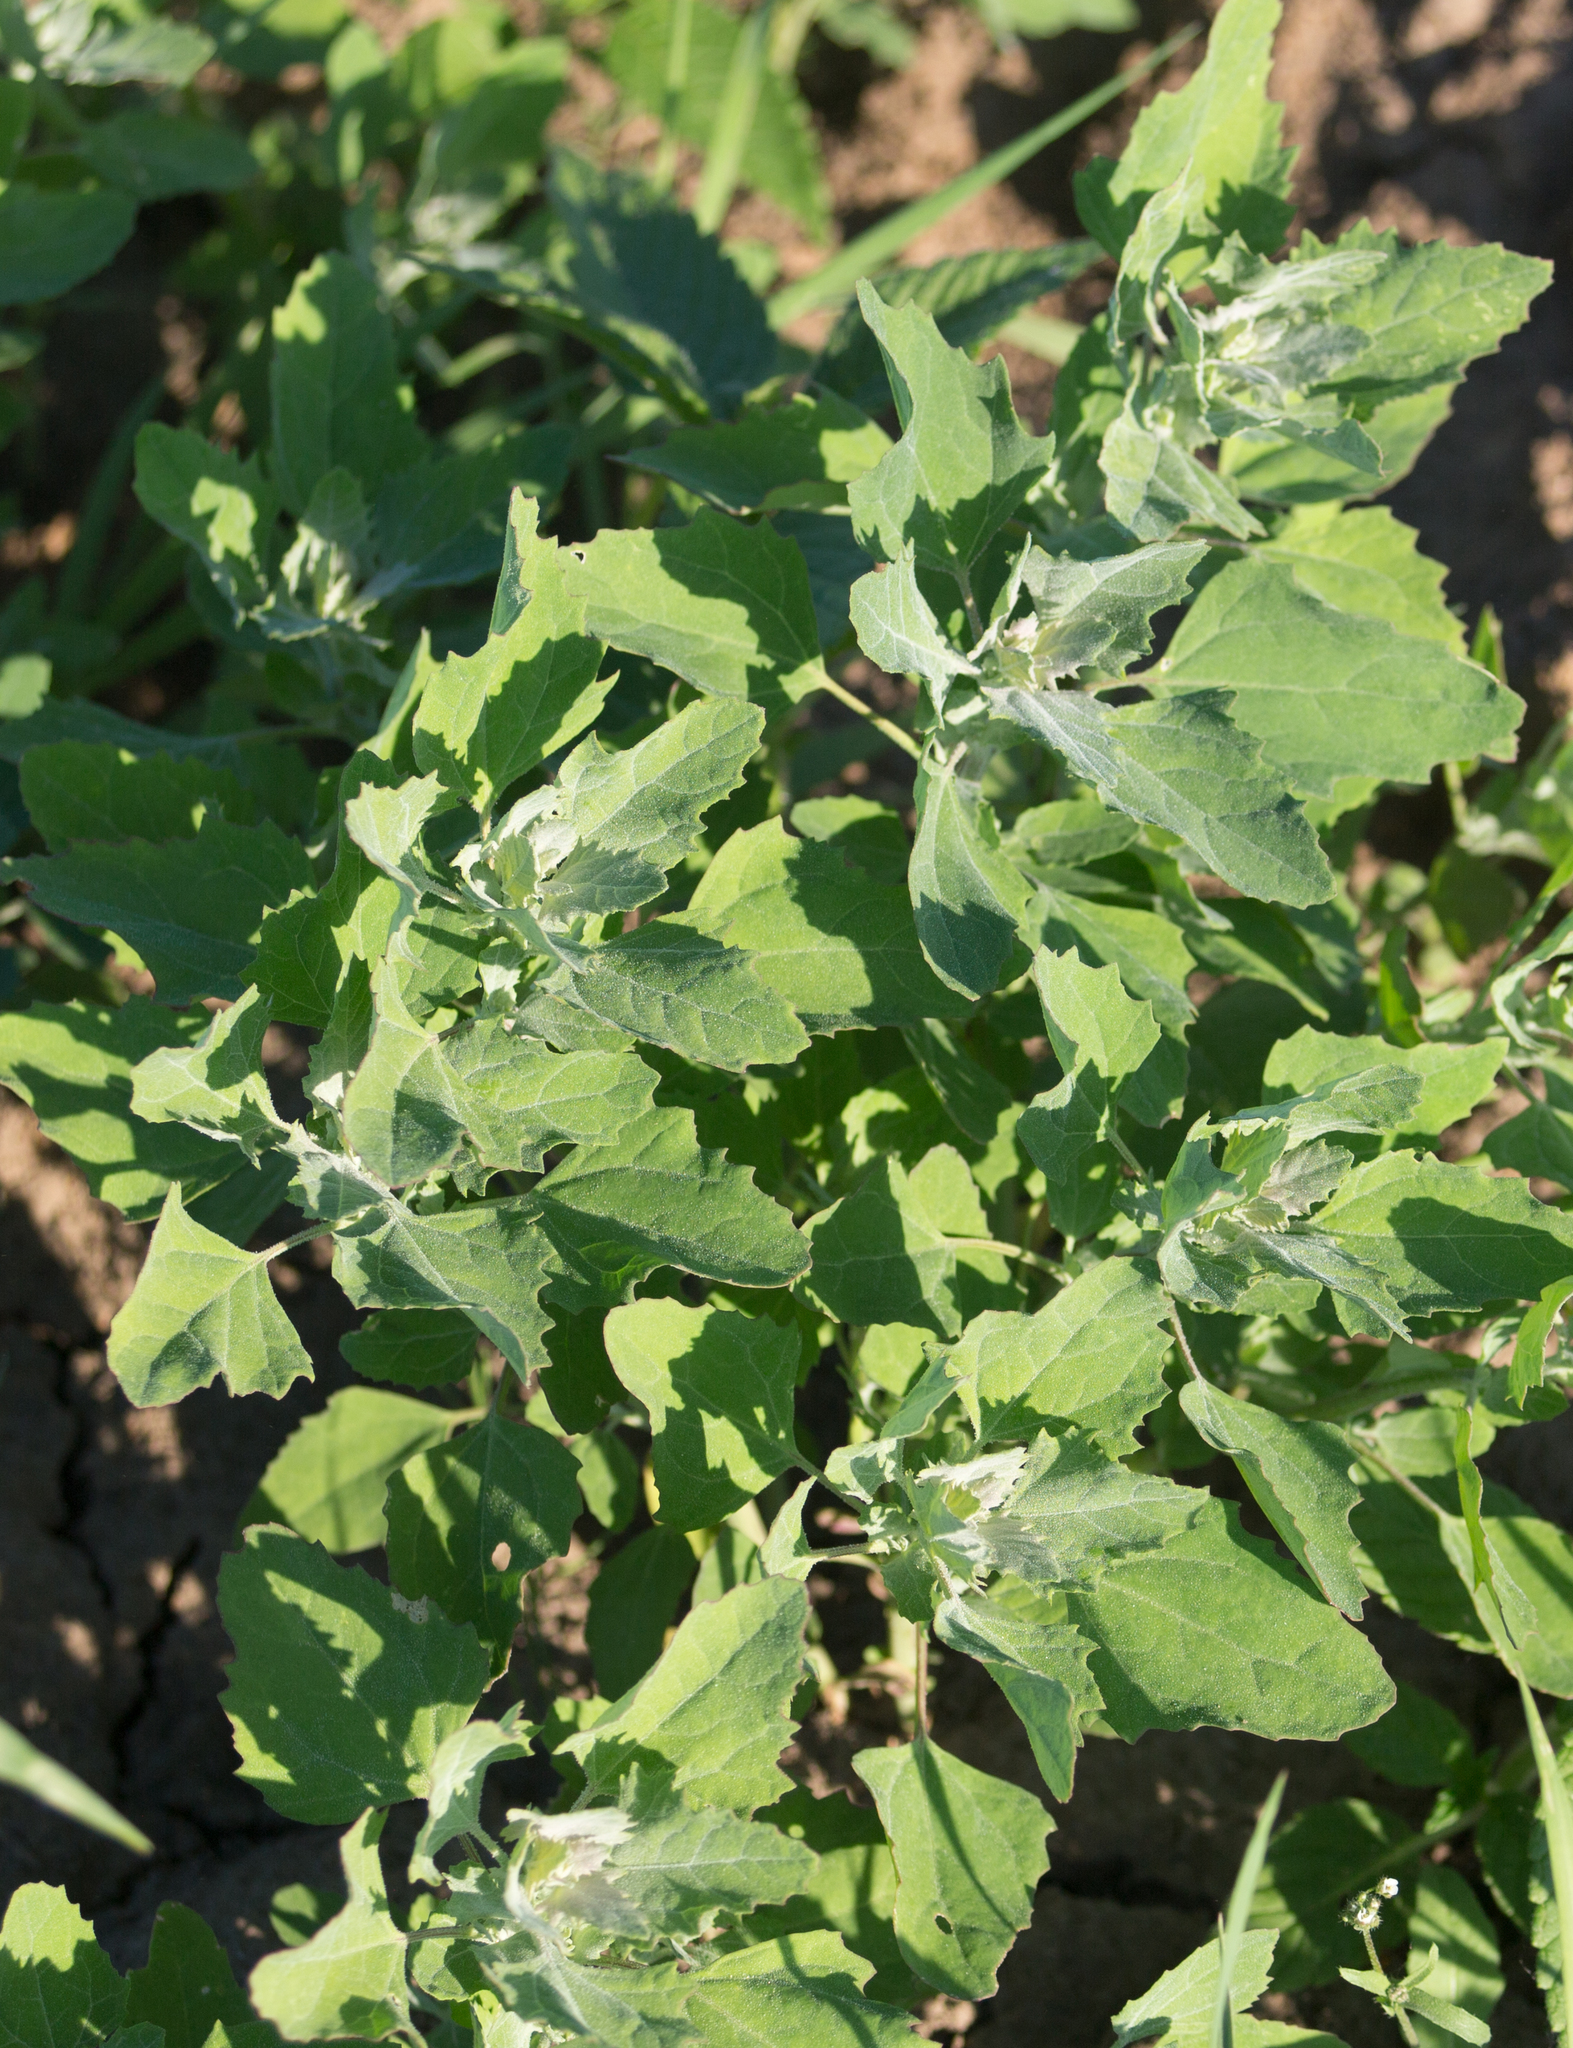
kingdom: Plantae
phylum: Tracheophyta
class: Magnoliopsida
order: Caryophyllales
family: Amaranthaceae
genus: Chenopodium
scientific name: Chenopodium album
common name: Fat-hen
